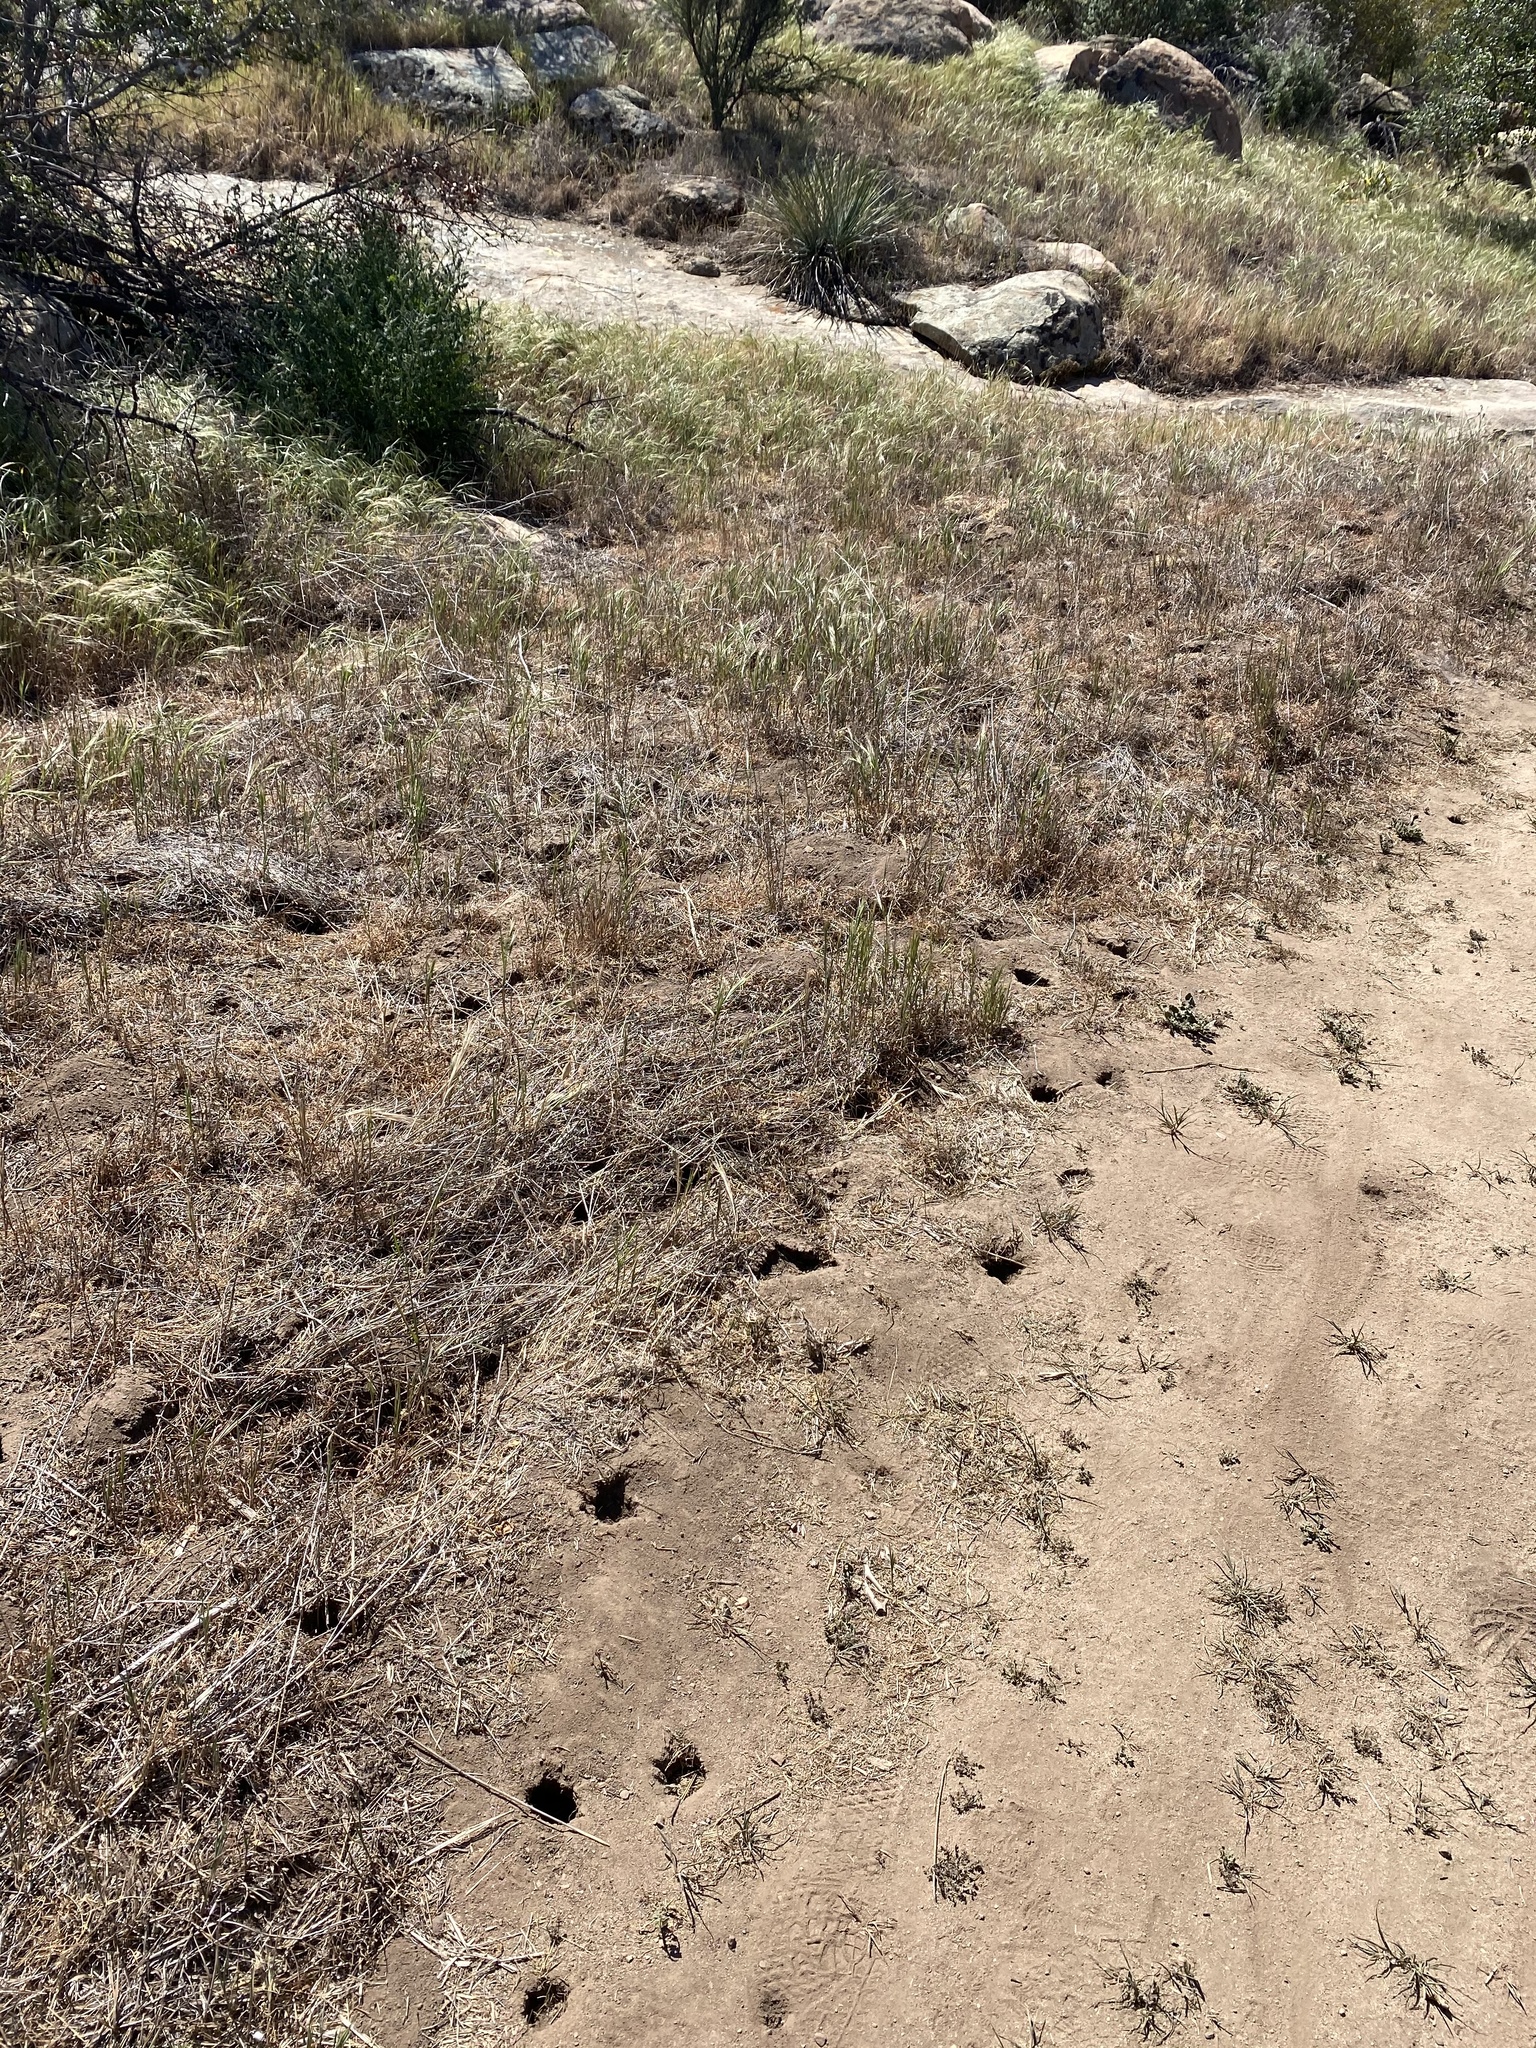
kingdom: Animalia
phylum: Chordata
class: Mammalia
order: Rodentia
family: Geomyidae
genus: Thomomys
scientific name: Thomomys bottae
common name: Botta's pocket gopher
